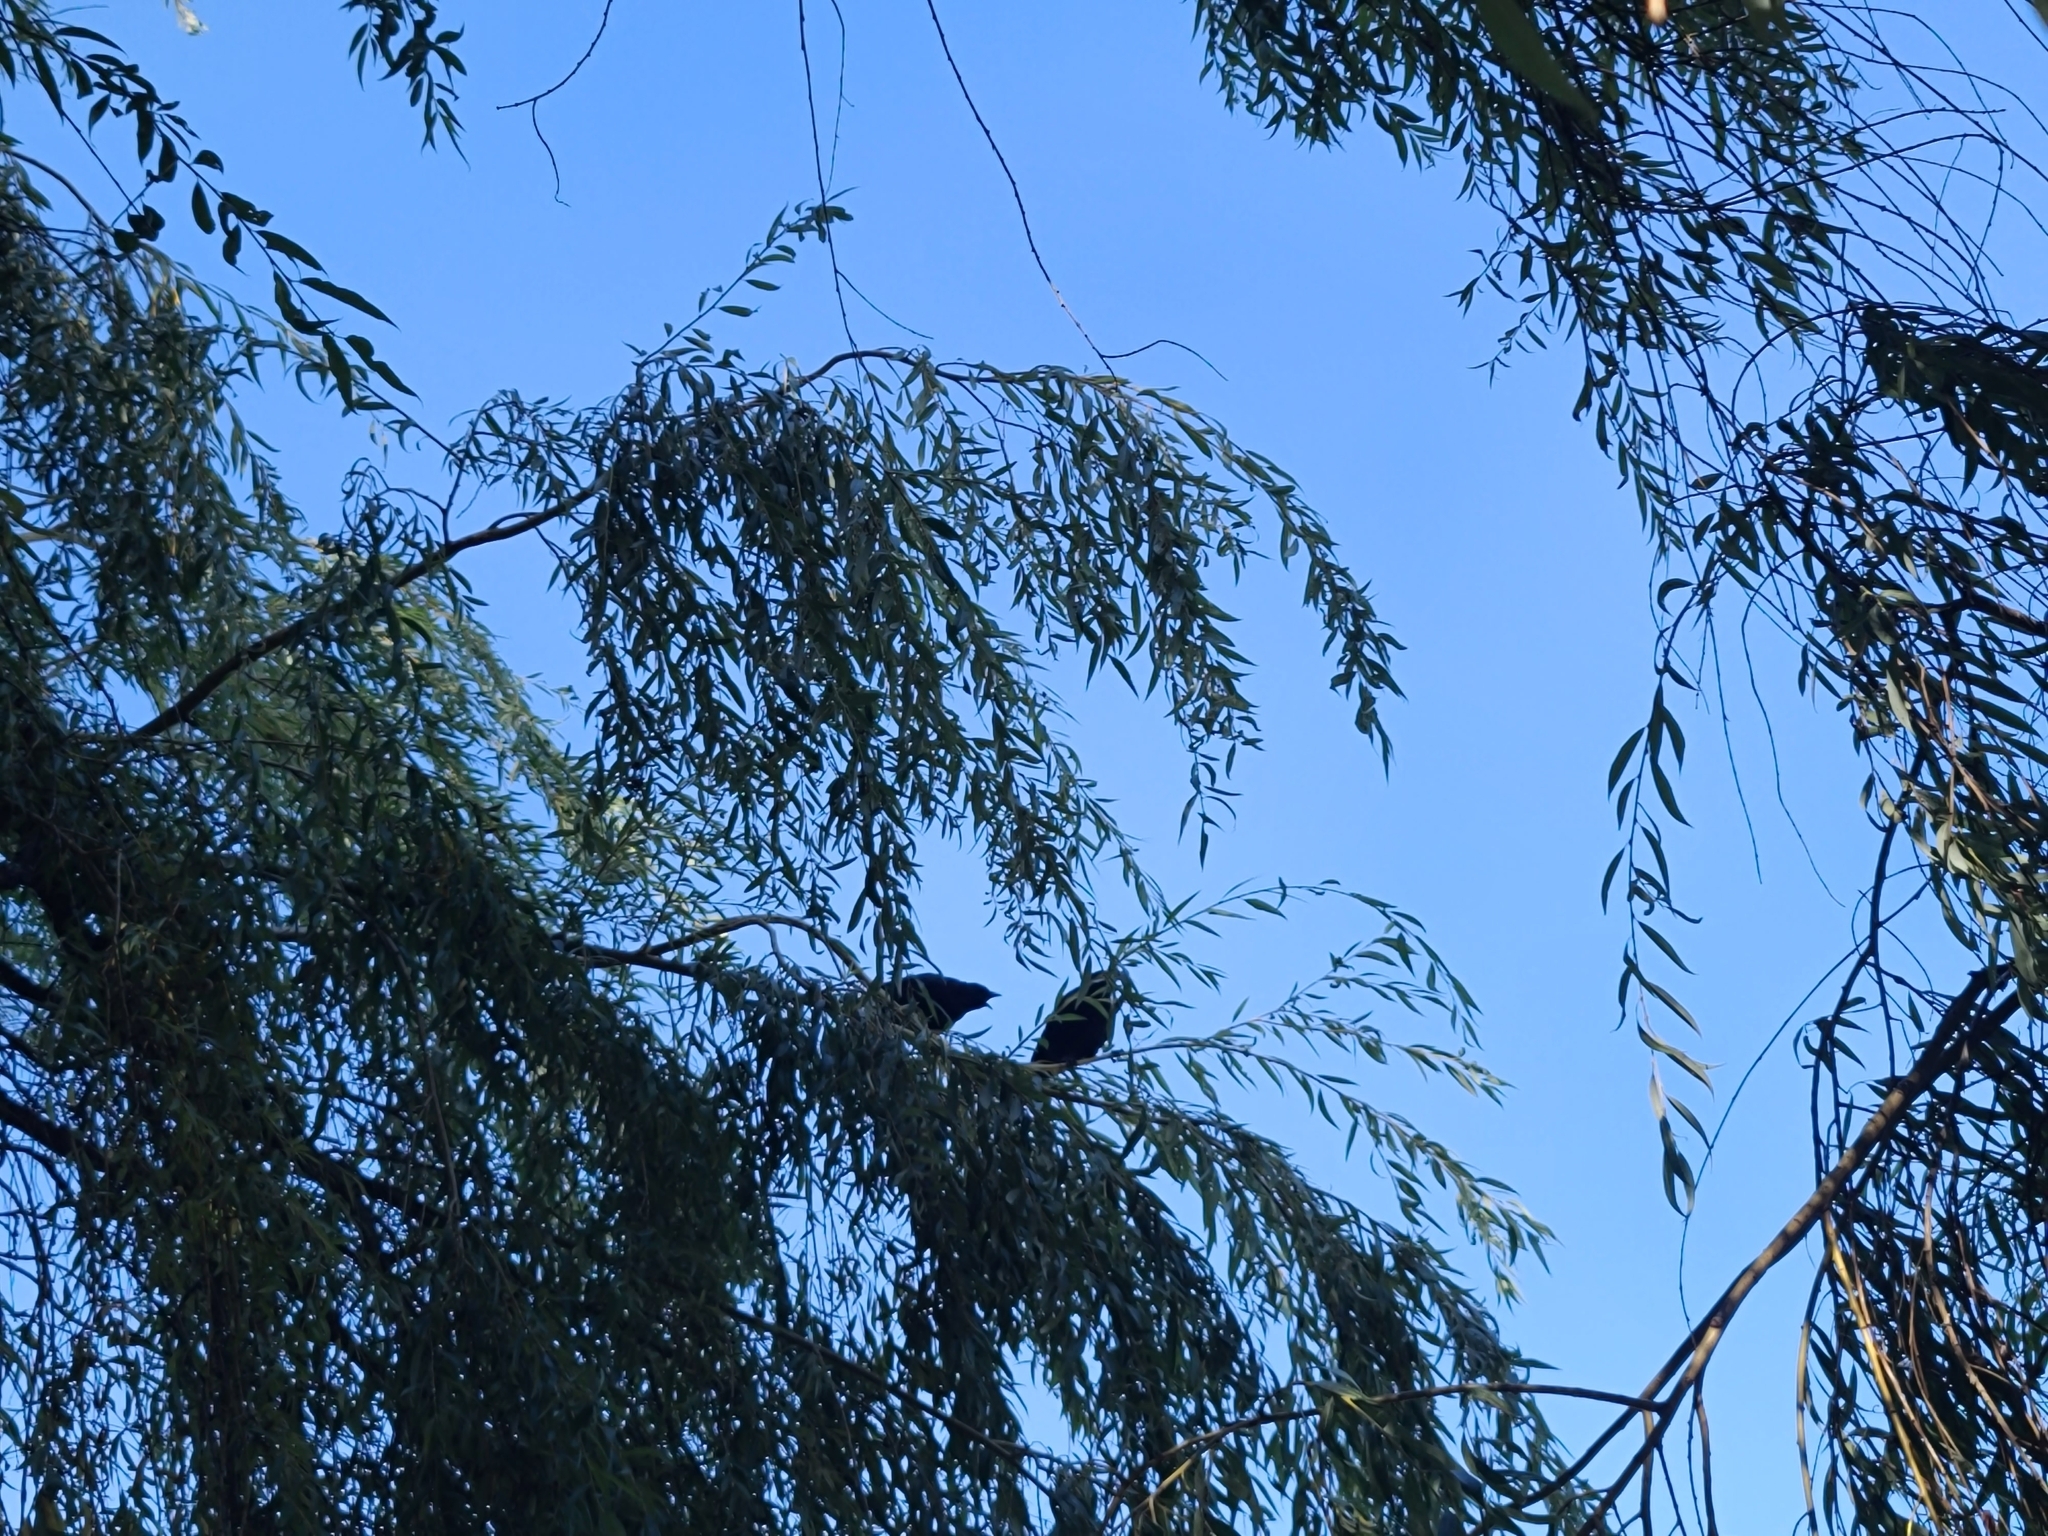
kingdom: Animalia
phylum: Chordata
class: Aves
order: Passeriformes
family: Corvidae
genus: Corvus
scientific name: Corvus brachyrhynchos
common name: American crow
